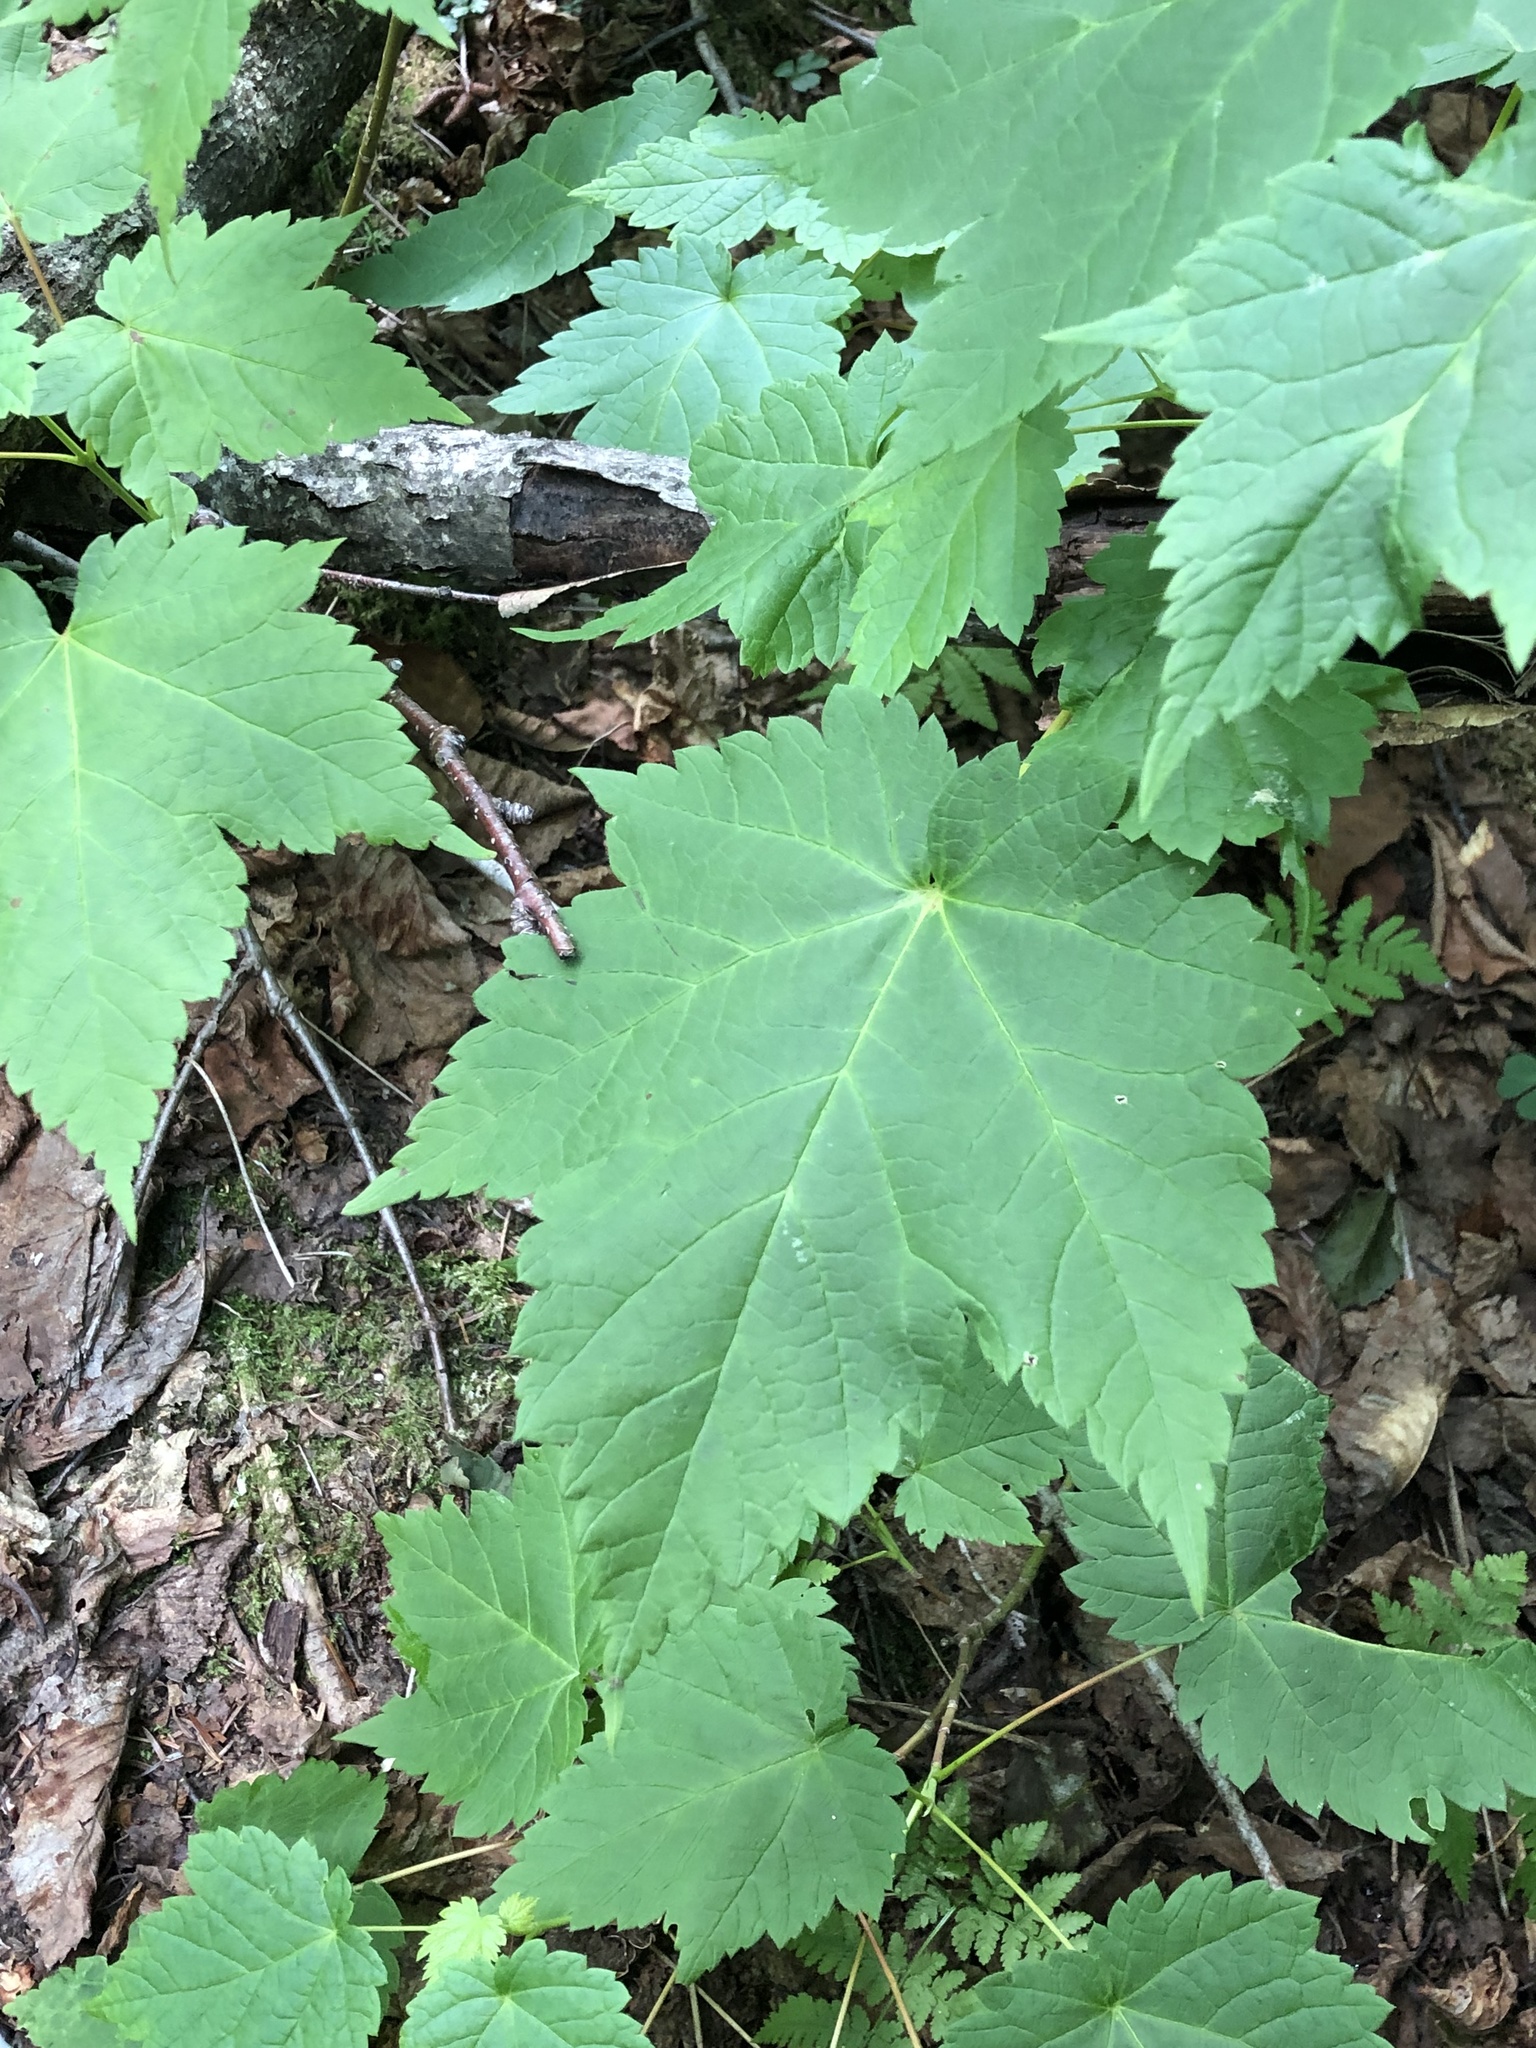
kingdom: Plantae
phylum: Tracheophyta
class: Magnoliopsida
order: Sapindales
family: Sapindaceae
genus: Acer
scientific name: Acer spicatum
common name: Mountain maple
